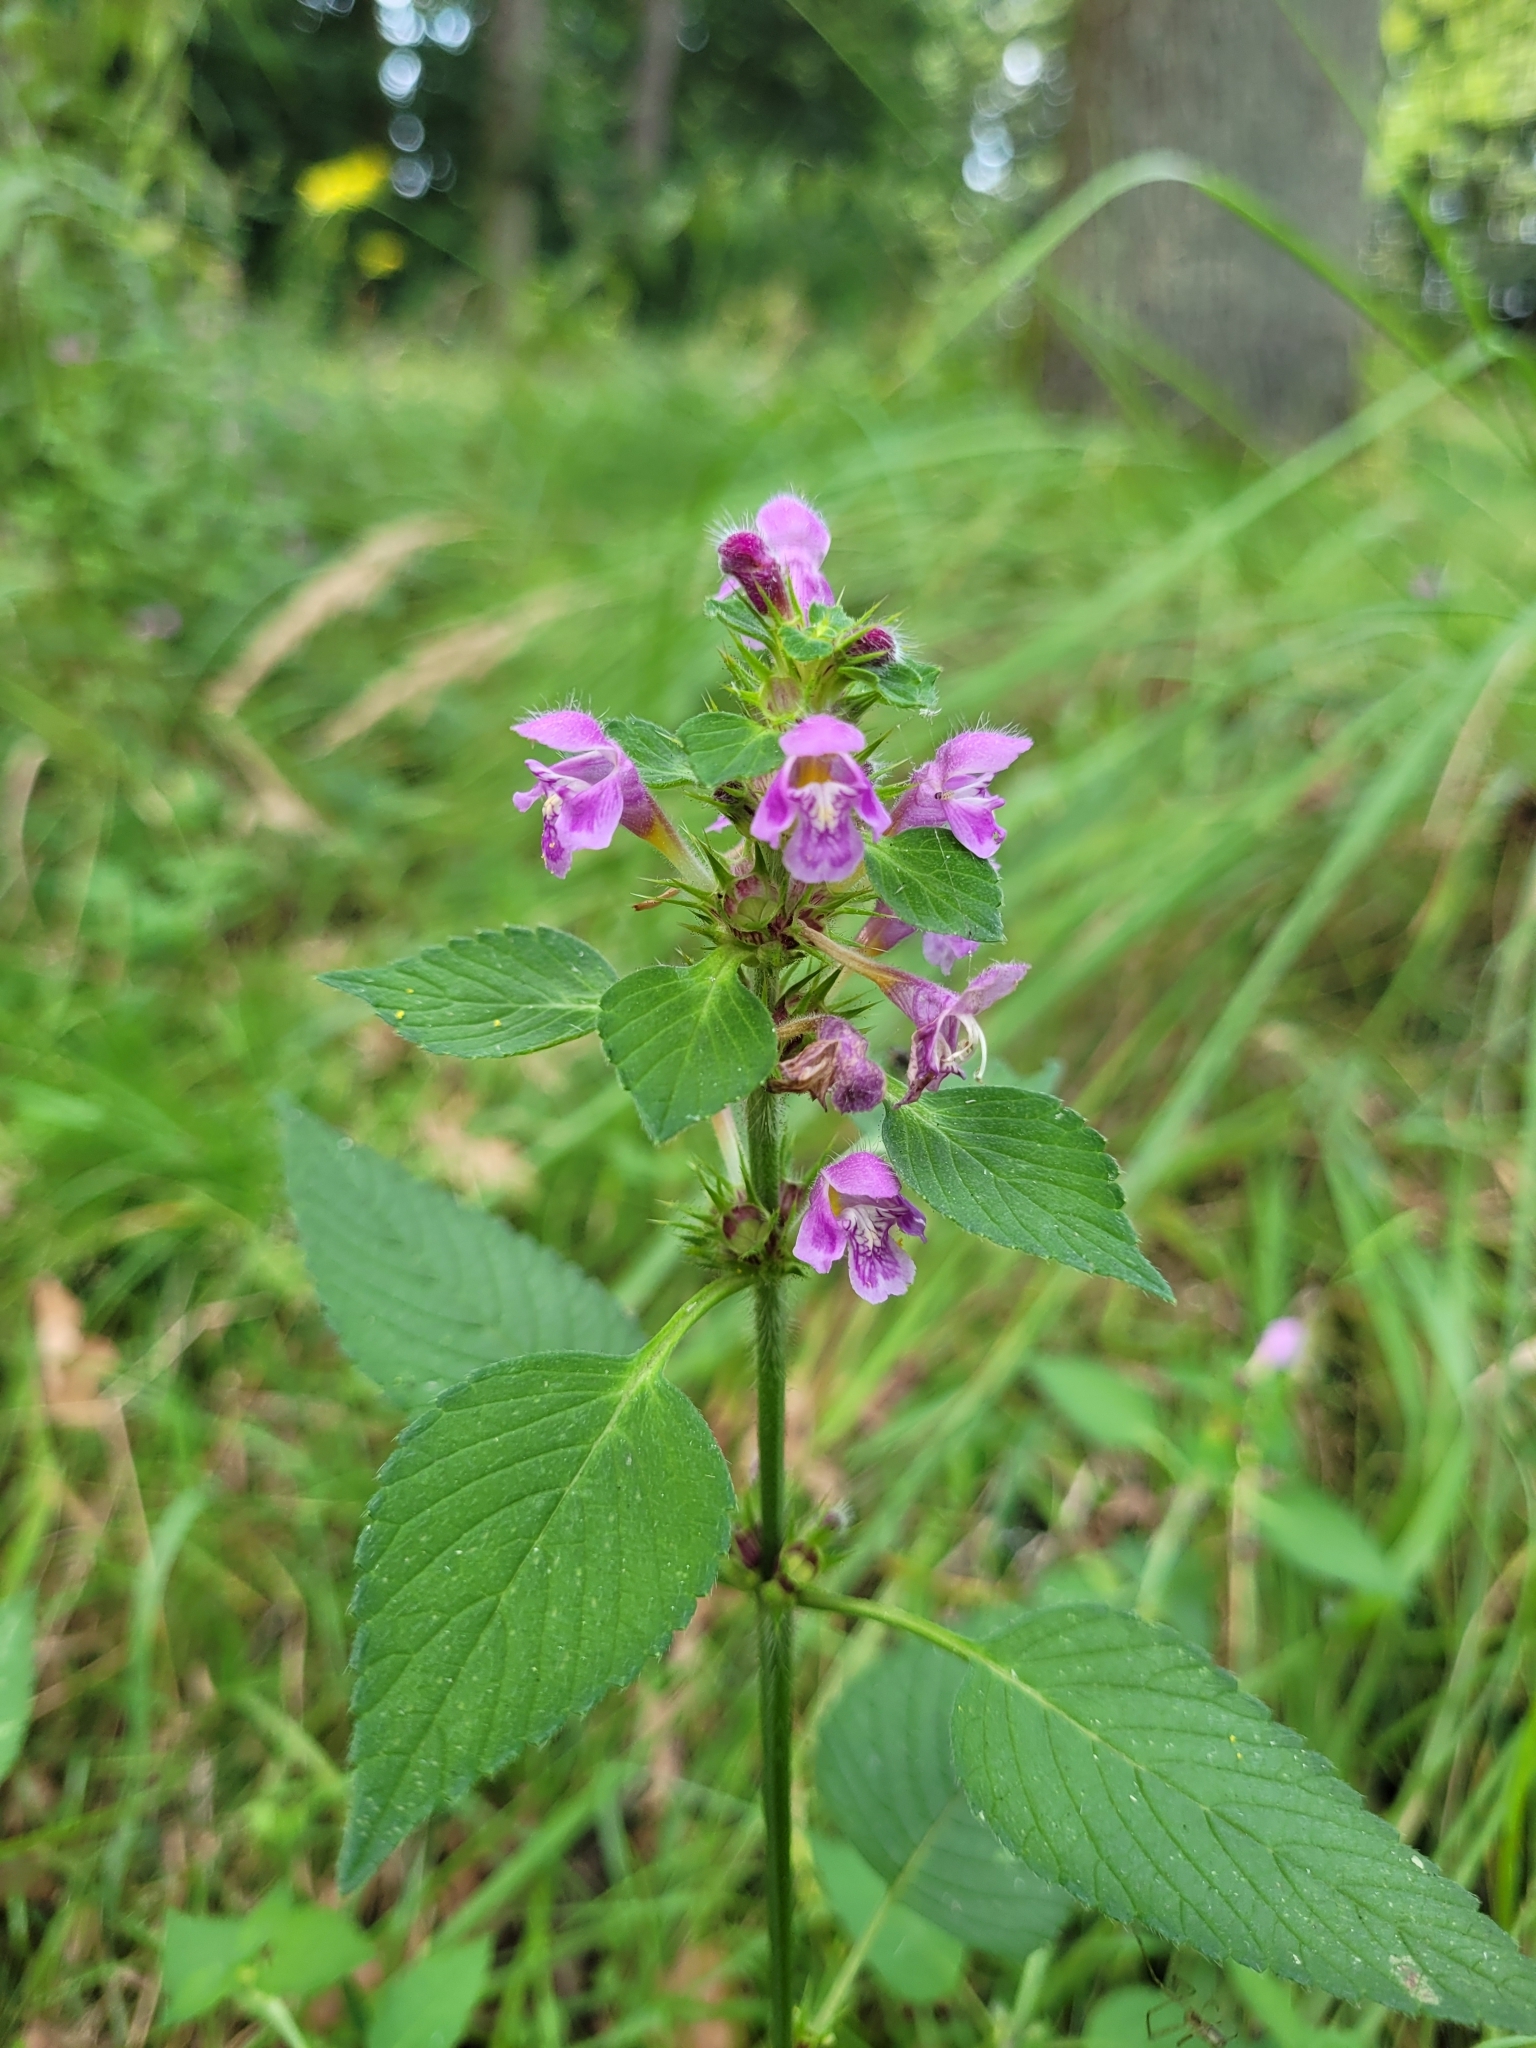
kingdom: Plantae
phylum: Tracheophyta
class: Magnoliopsida
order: Lamiales
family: Lamiaceae
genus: Galeopsis
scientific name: Galeopsis pubescens
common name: Downy hemp-nettle
